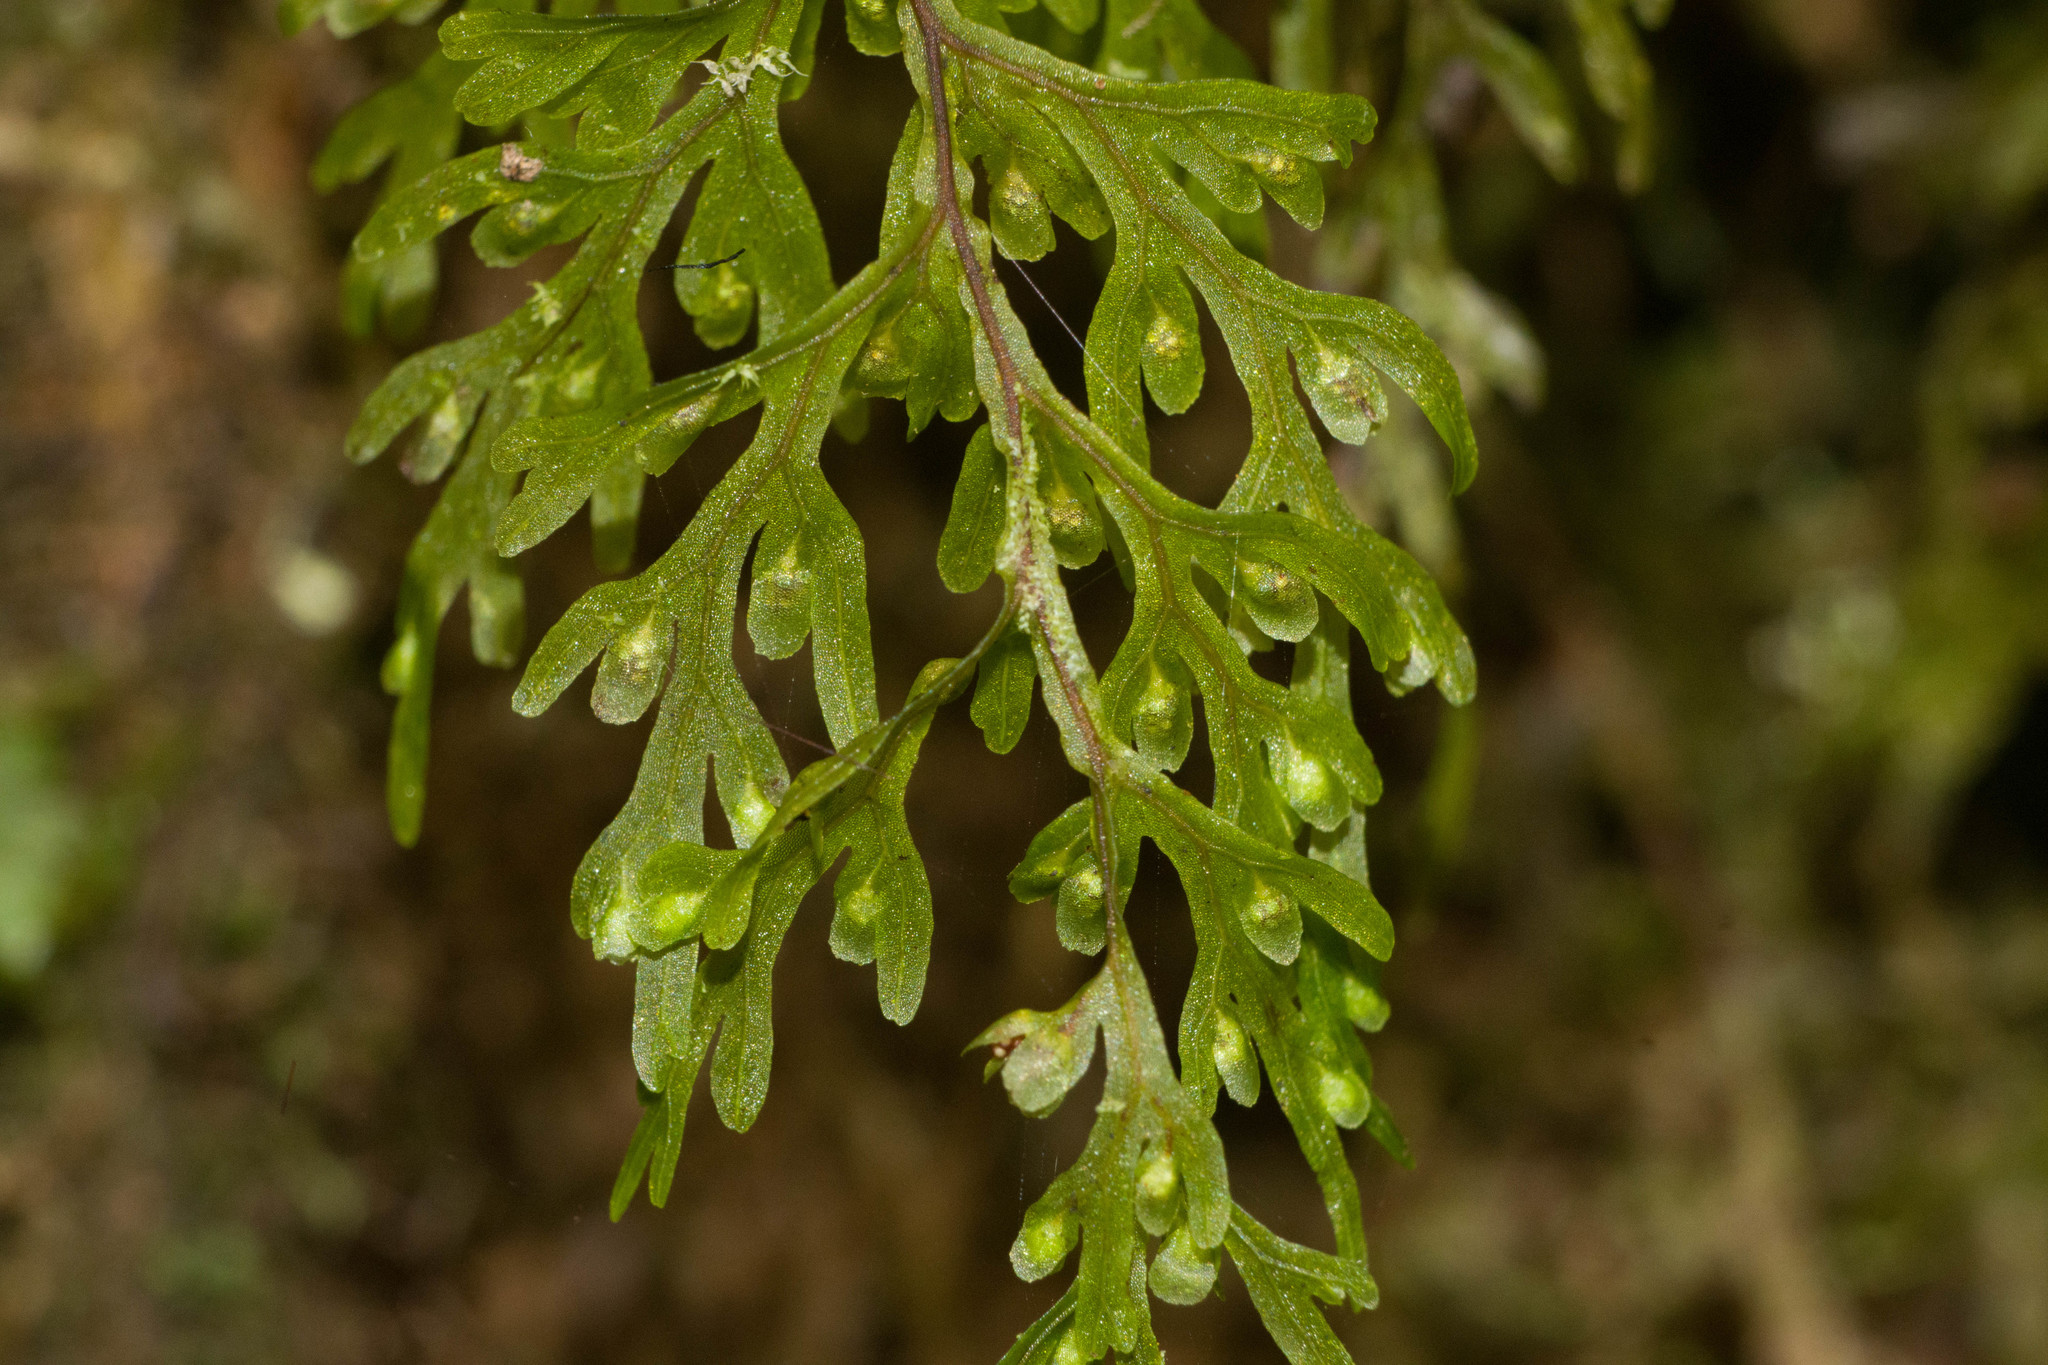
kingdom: Plantae
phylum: Tracheophyta
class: Polypodiopsida
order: Hymenophyllales
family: Hymenophyllaceae
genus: Hymenophyllum
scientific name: Hymenophyllum recurvum
